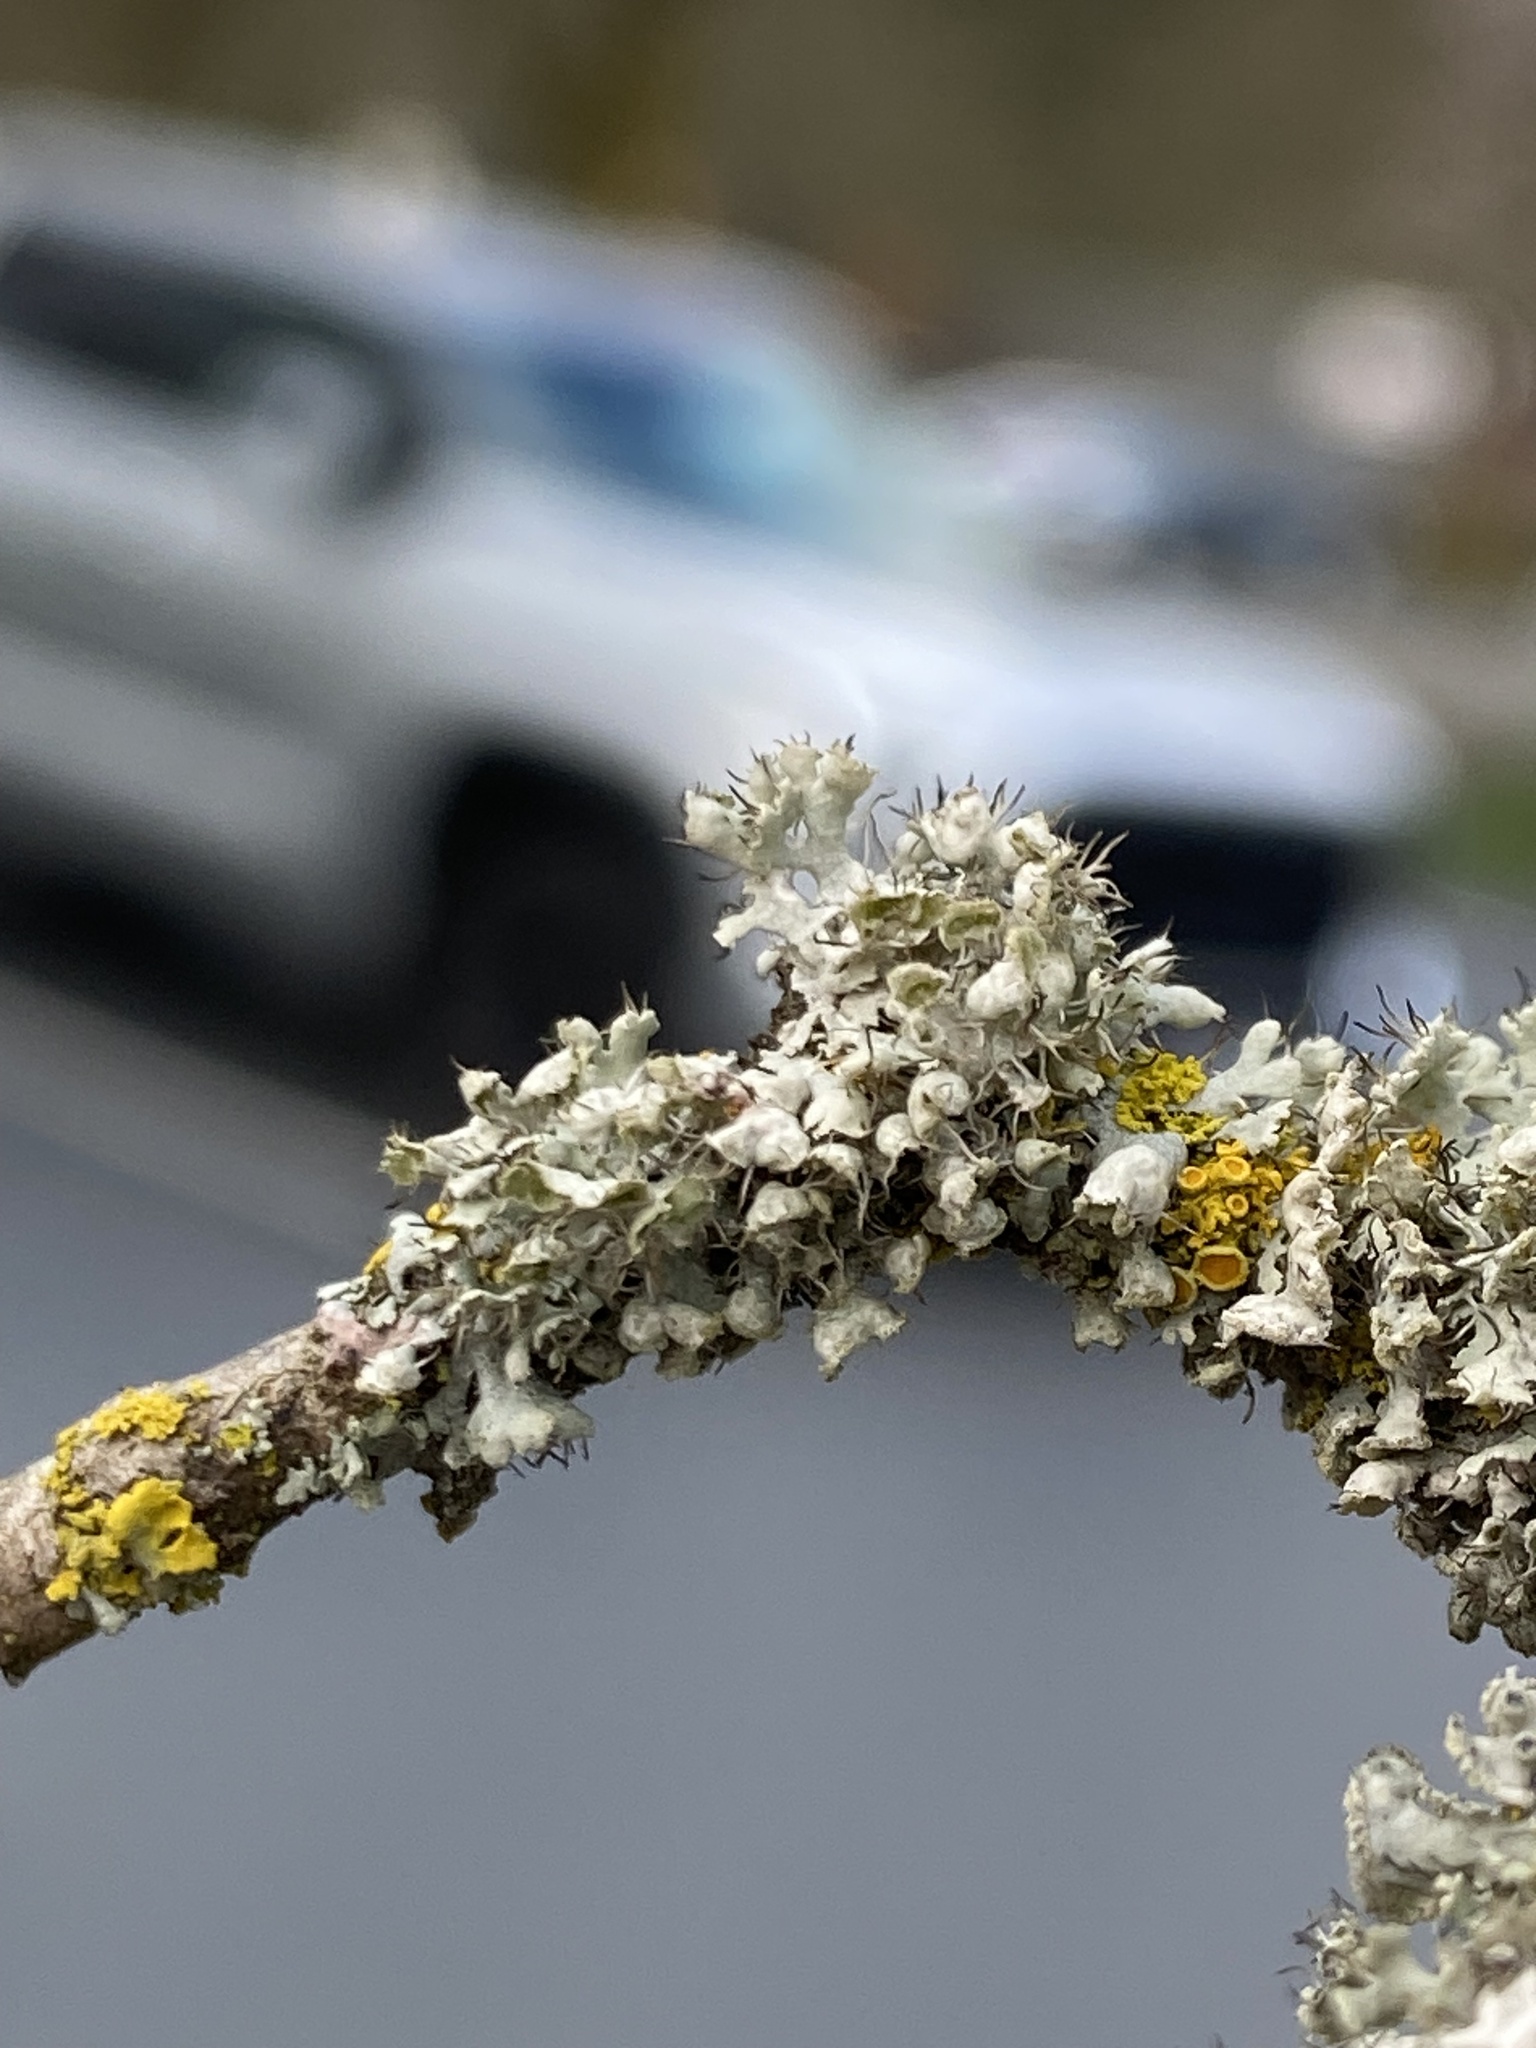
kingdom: Fungi
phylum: Ascomycota
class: Lecanoromycetes
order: Caliciales
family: Physciaceae
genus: Physcia
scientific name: Physcia adscendens
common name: Hooded rosette lichen
